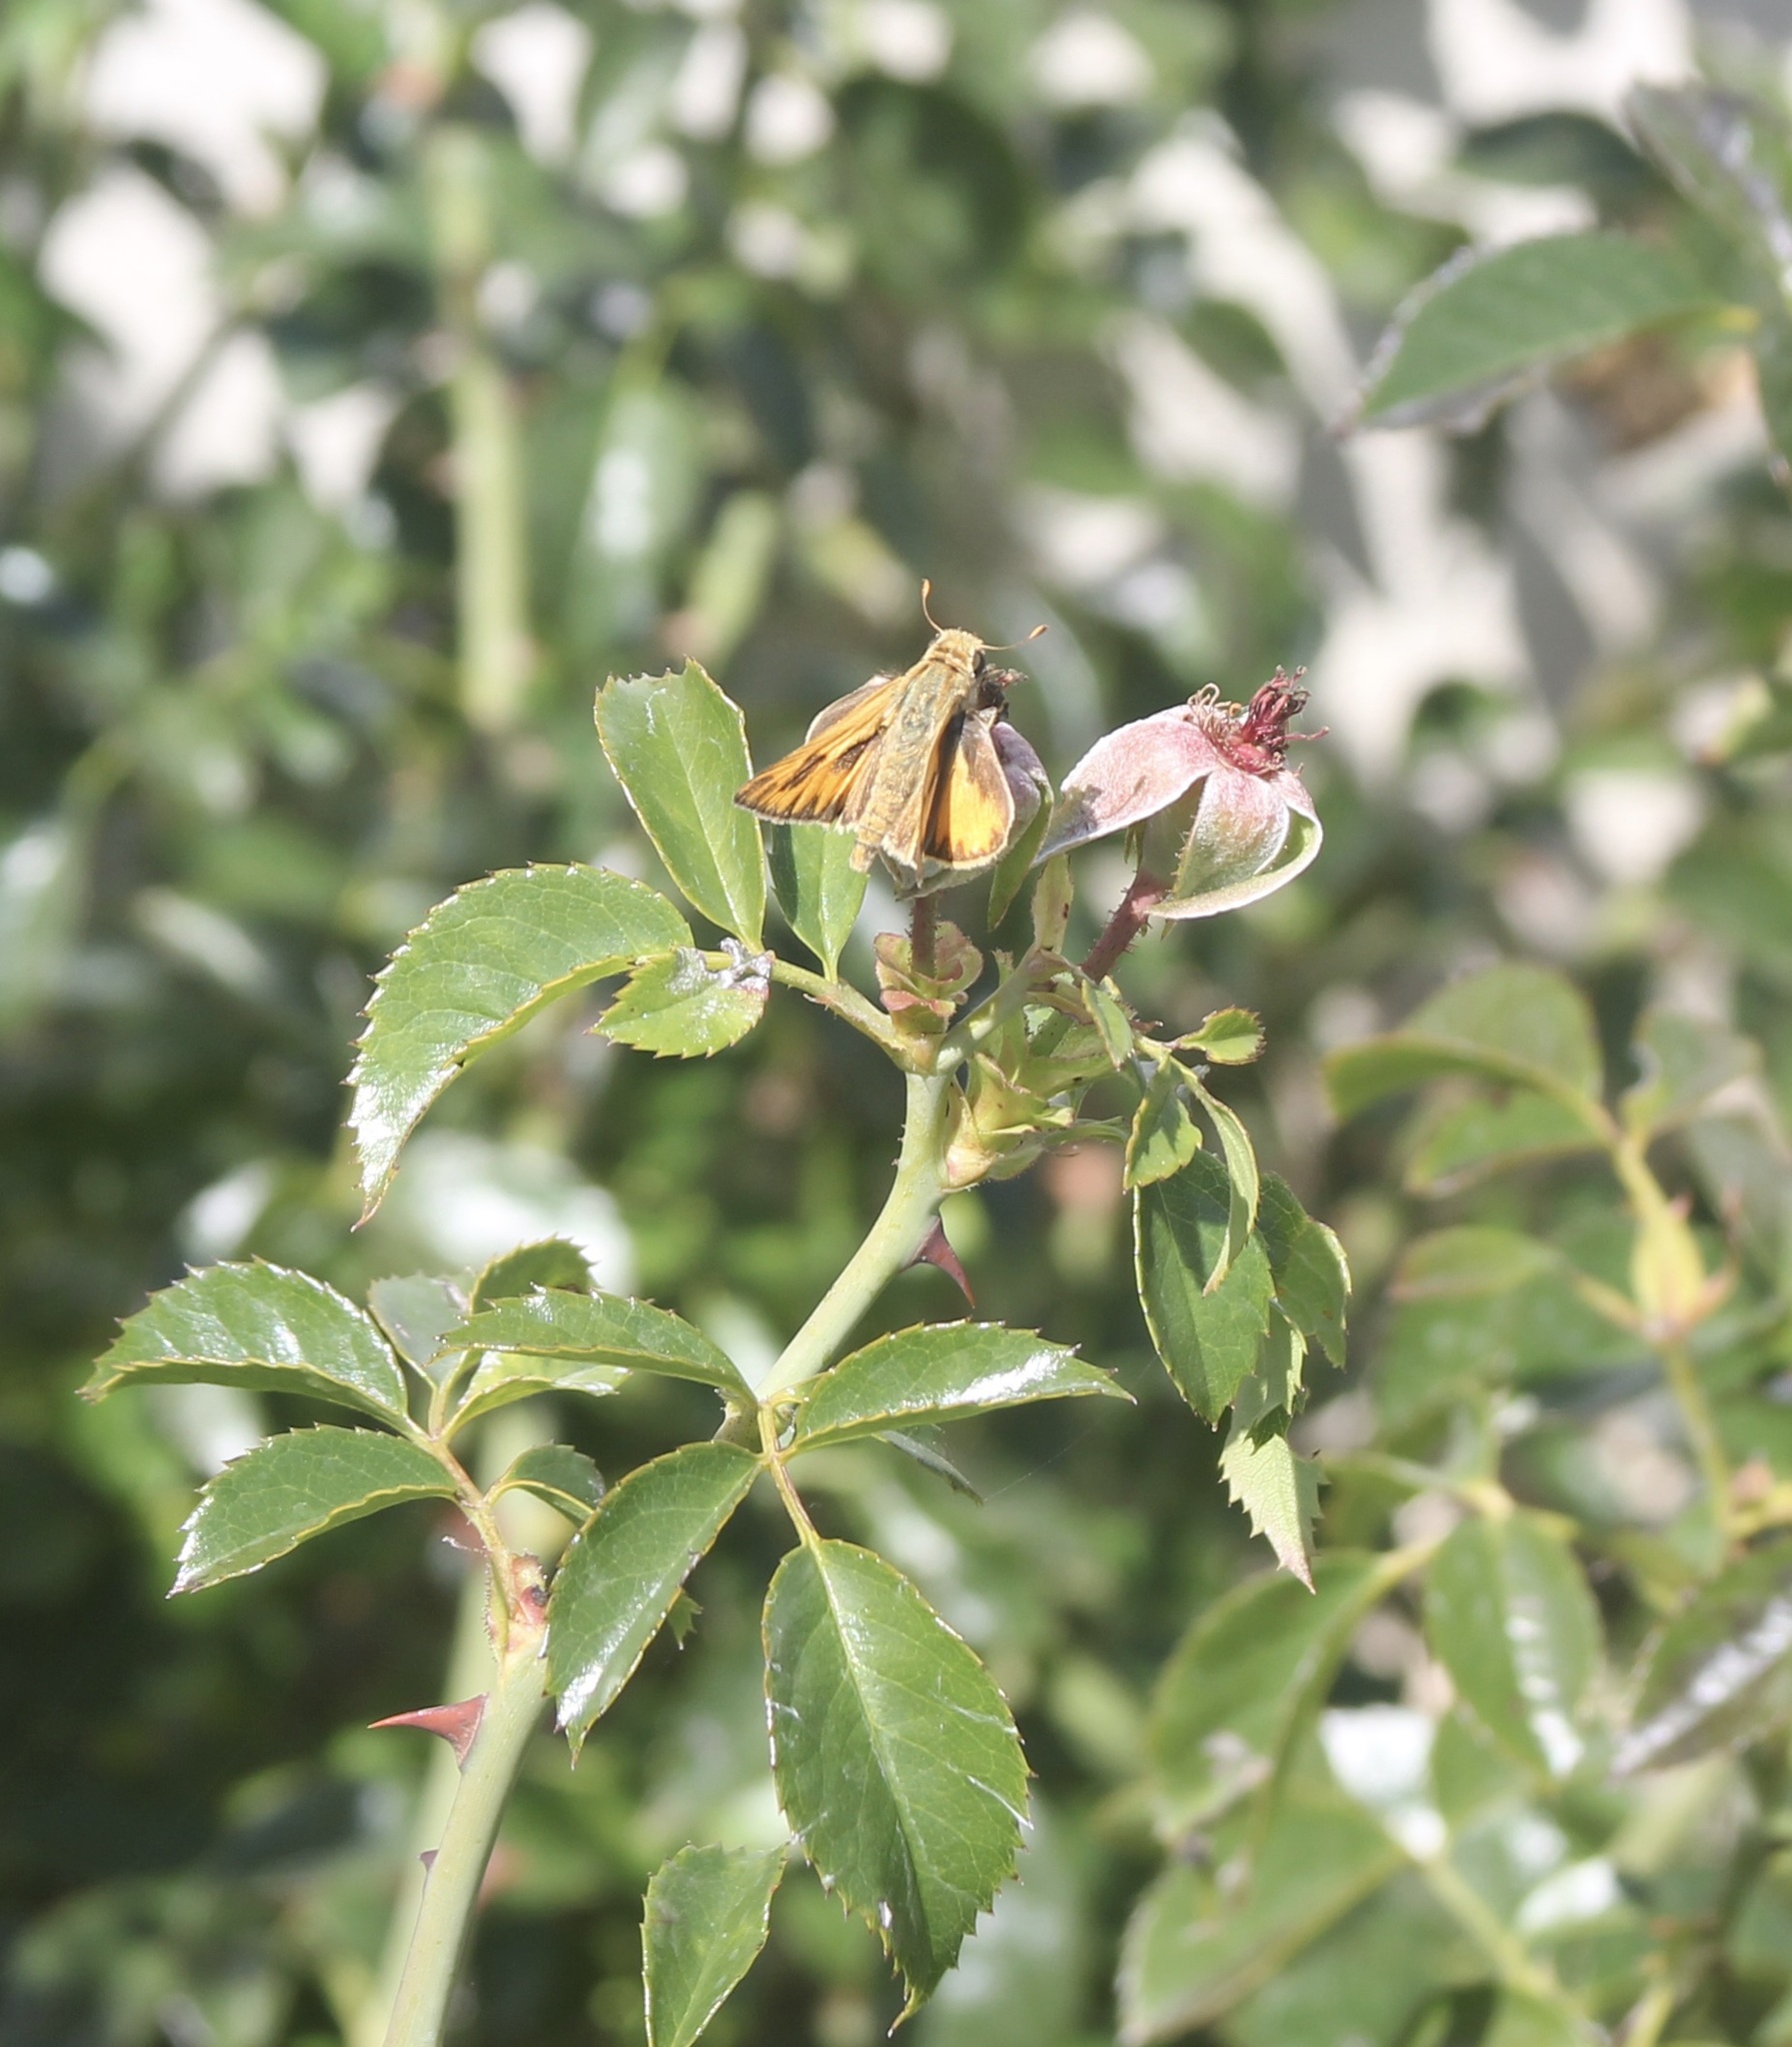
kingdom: Animalia
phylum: Arthropoda
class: Insecta
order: Lepidoptera
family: Hesperiidae
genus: Hylephila
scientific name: Hylephila phyleus
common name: Fiery skipper
